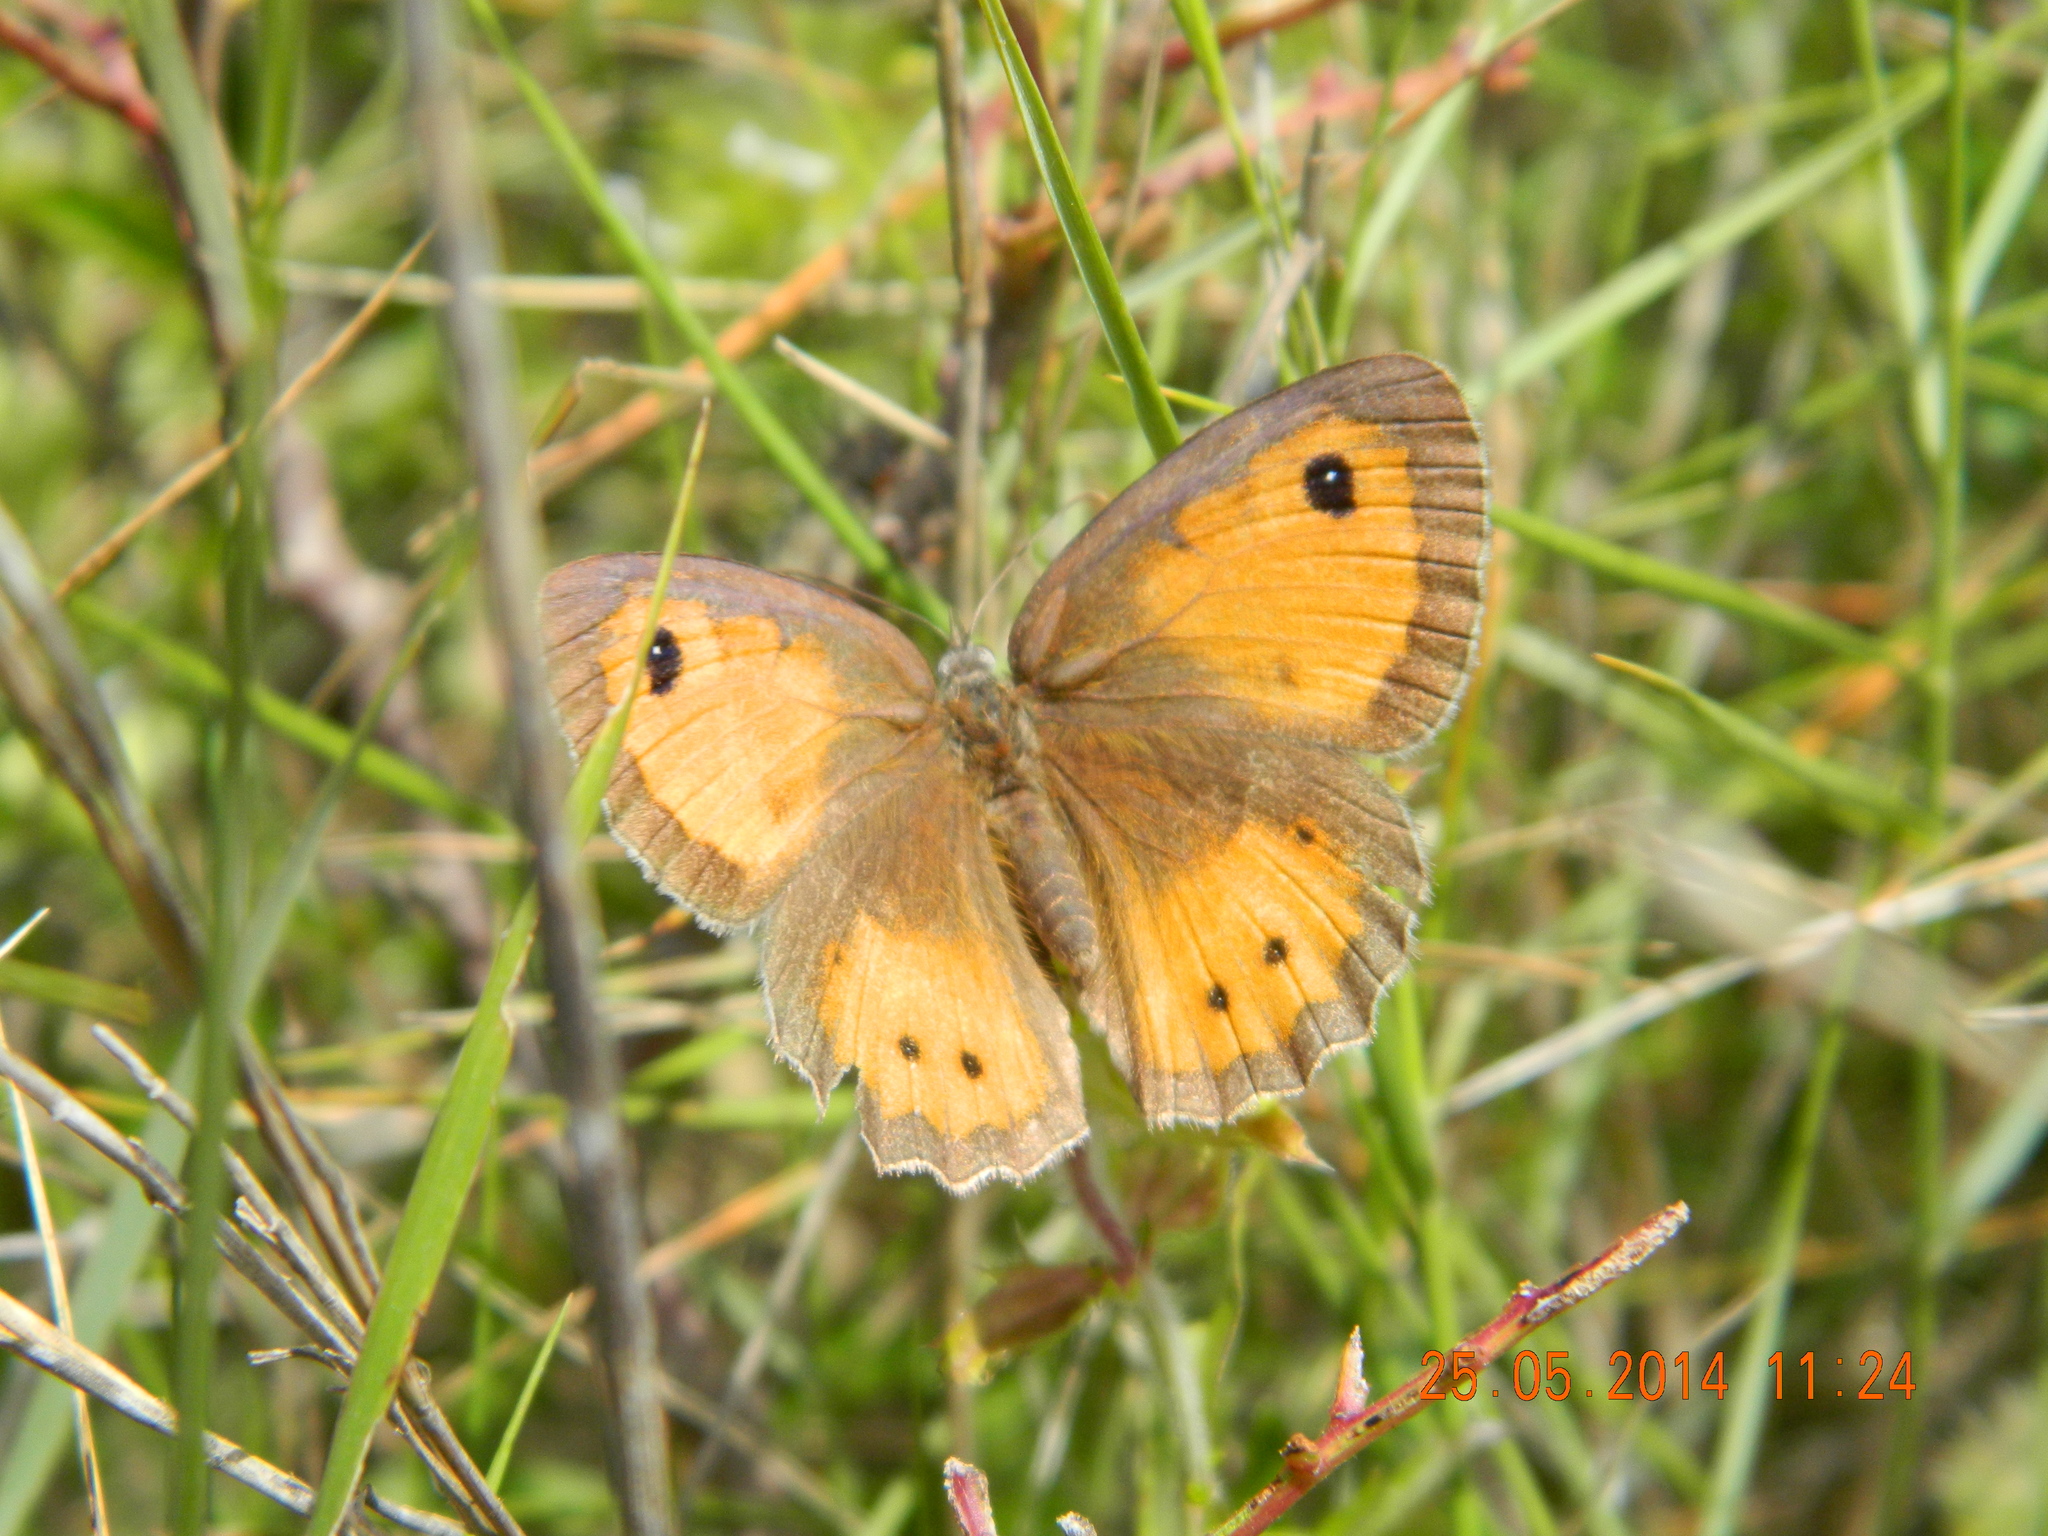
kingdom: Animalia
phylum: Arthropoda
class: Insecta
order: Lepidoptera
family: Nymphalidae
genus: Pyronia
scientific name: Pyronia bathseba
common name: Spanish gatekeeper
